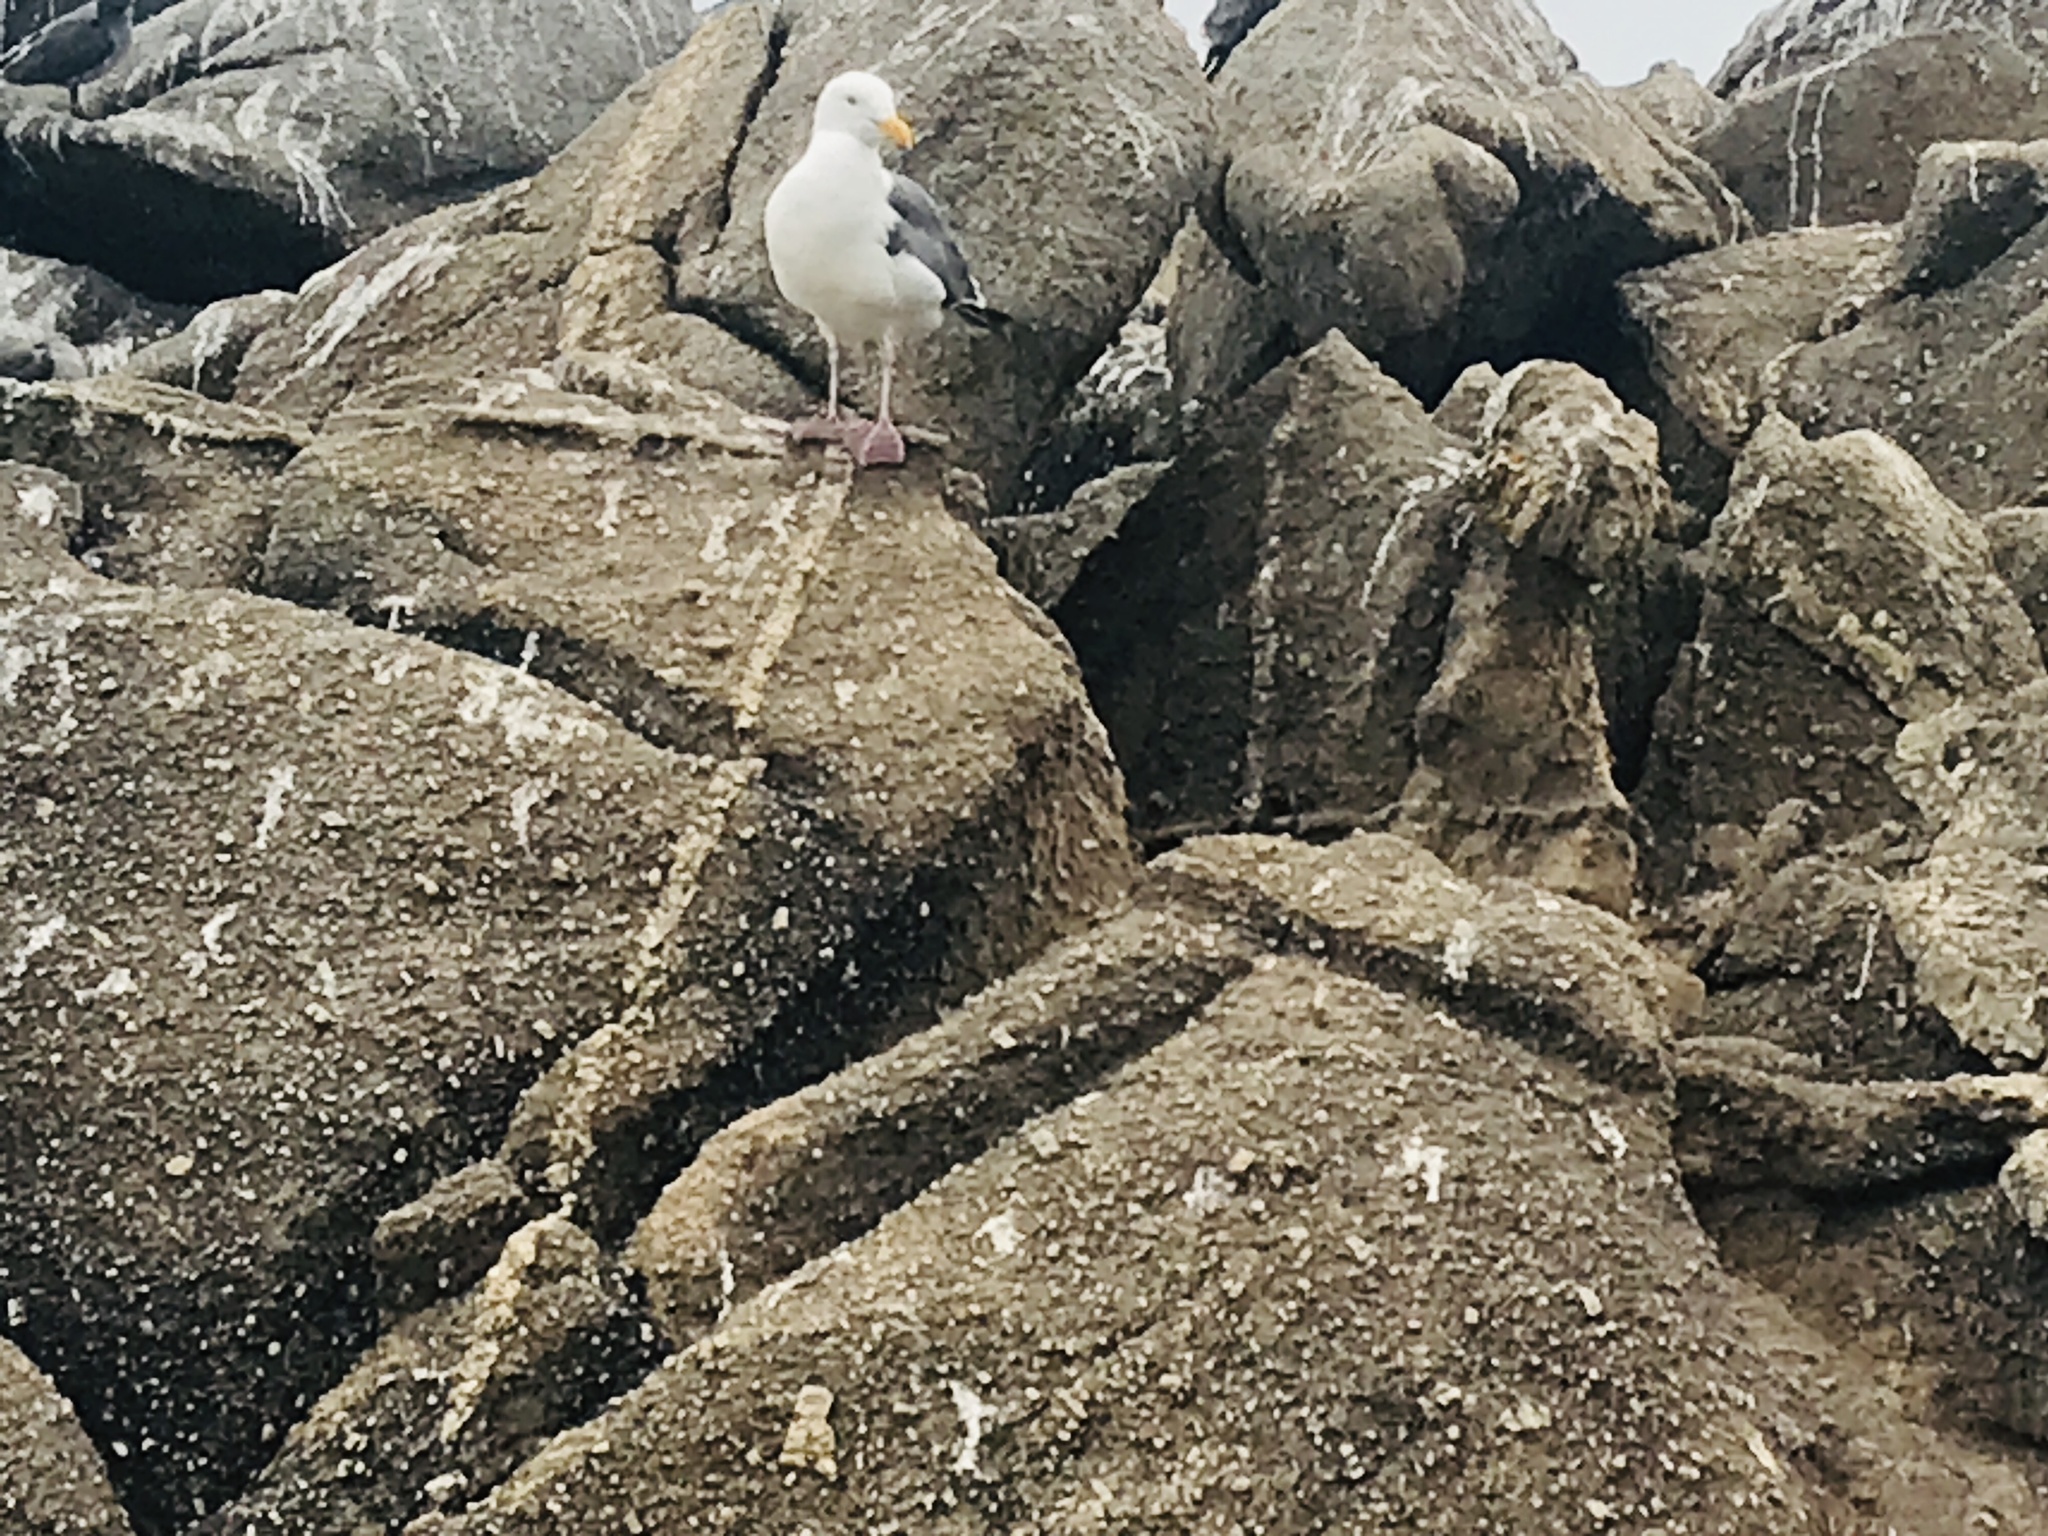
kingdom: Animalia
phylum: Chordata
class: Aves
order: Charadriiformes
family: Laridae
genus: Larus
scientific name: Larus occidentalis
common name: Western gull
